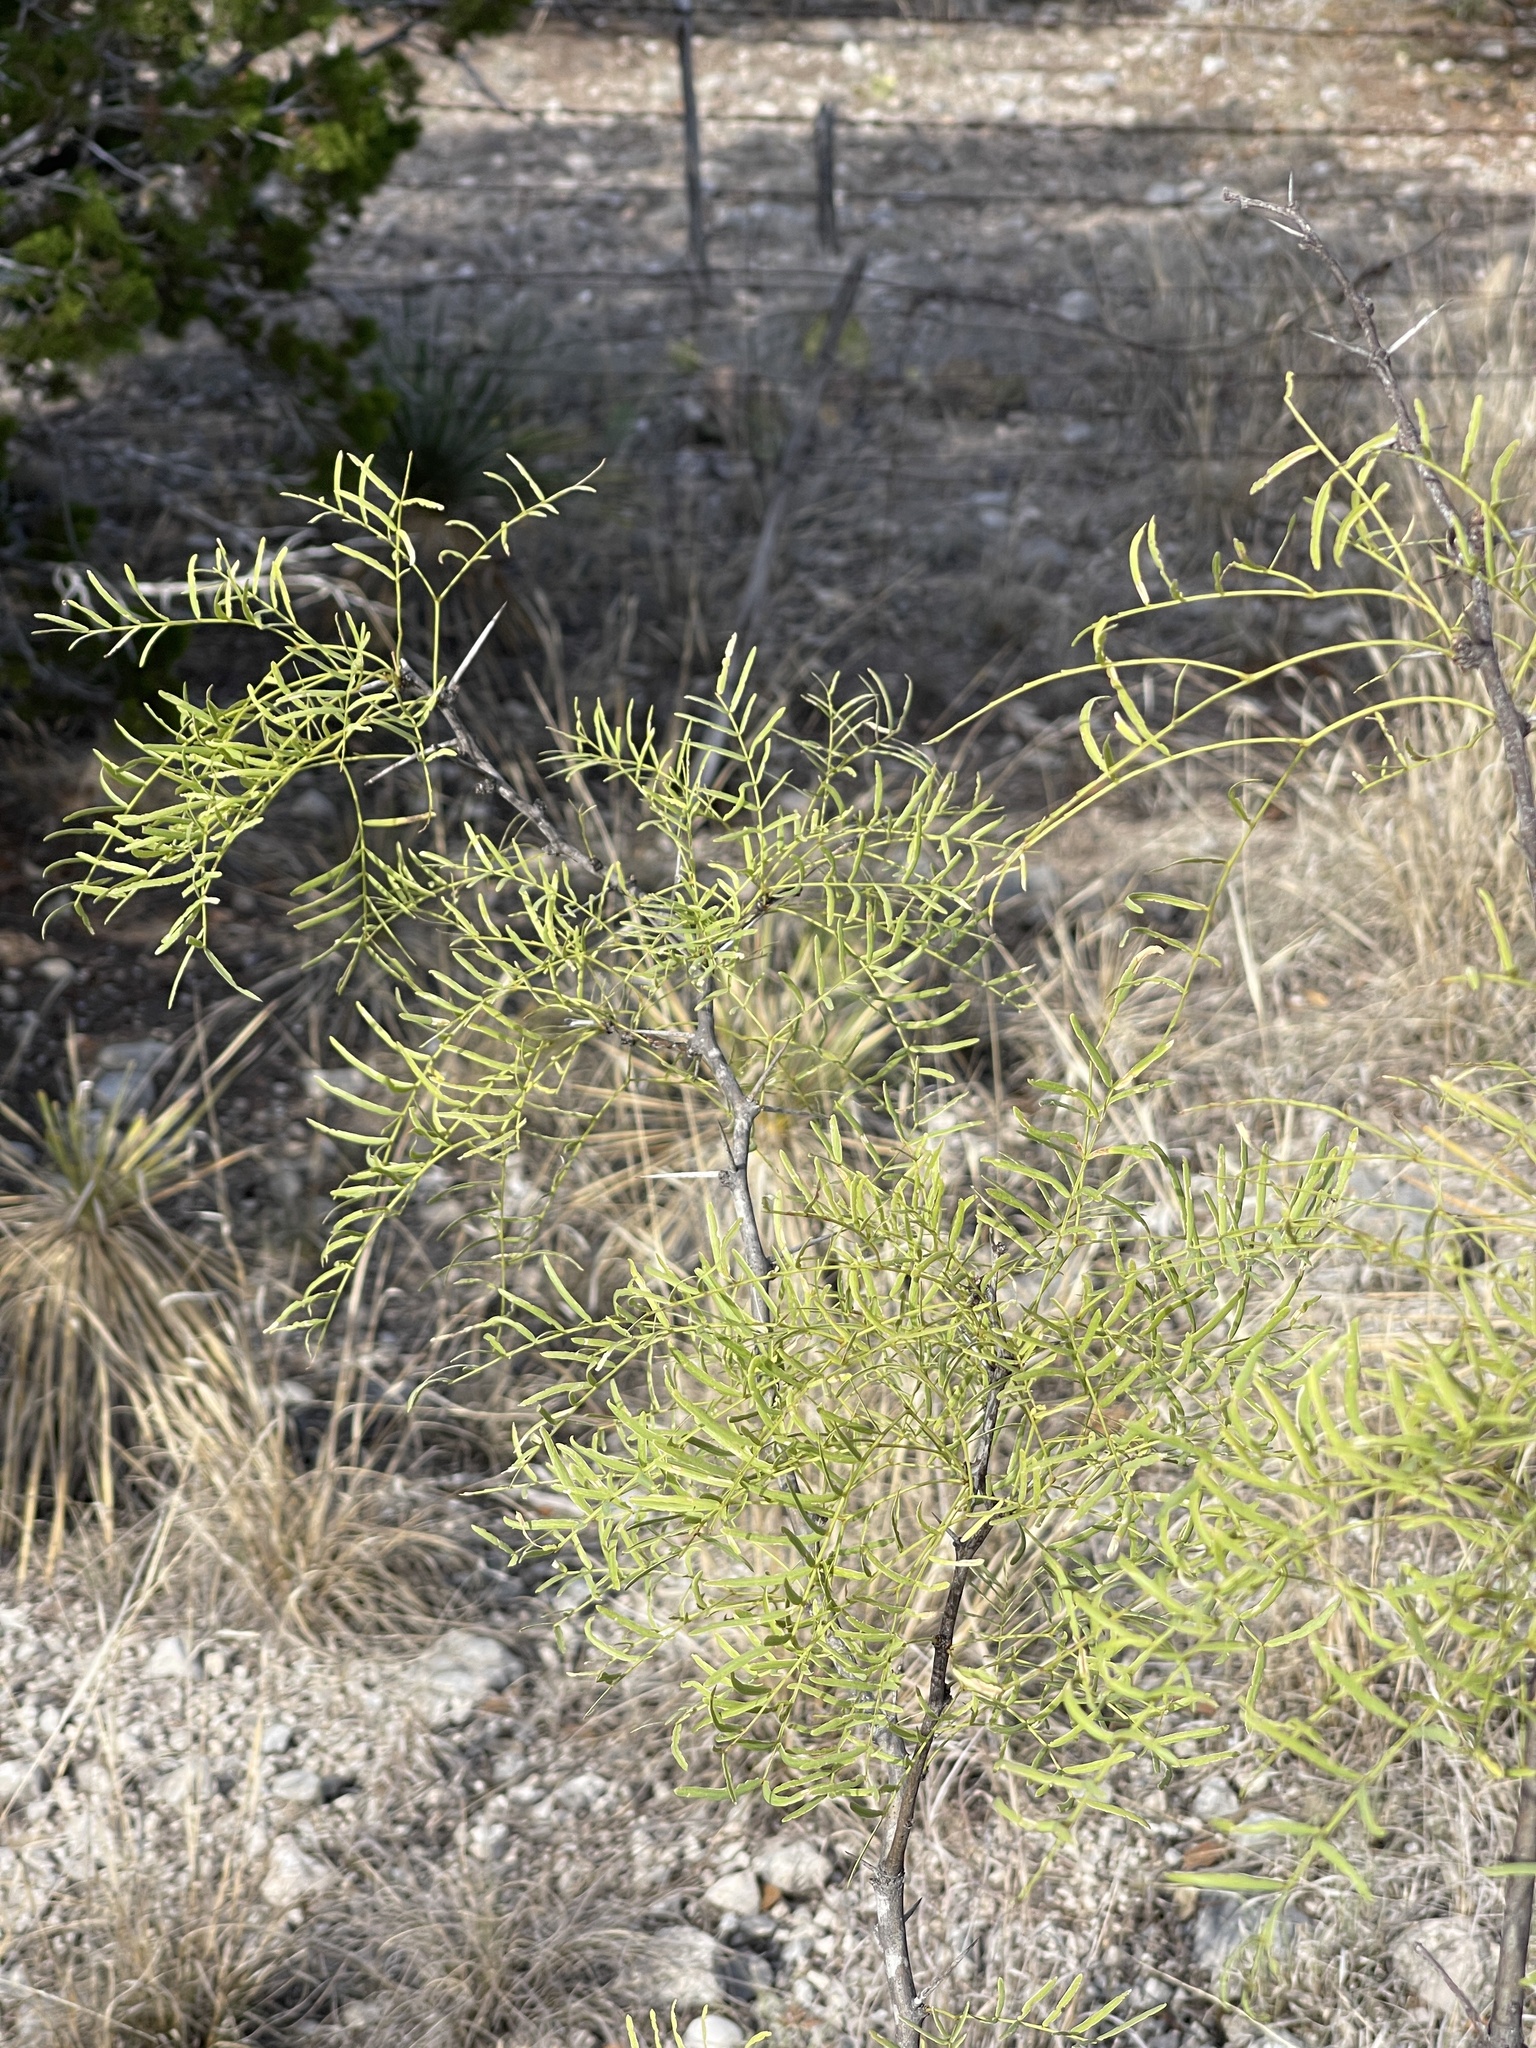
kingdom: Plantae
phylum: Tracheophyta
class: Magnoliopsida
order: Fabales
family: Fabaceae
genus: Prosopis
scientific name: Prosopis glandulosa
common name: Honey mesquite
